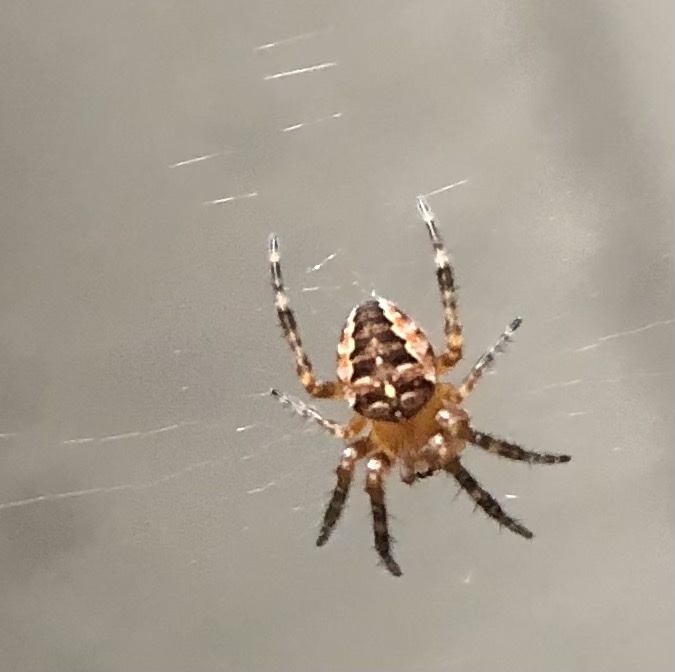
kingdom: Animalia
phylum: Arthropoda
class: Arachnida
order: Araneae
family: Araneidae
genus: Araneus
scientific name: Araneus diadematus
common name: Cross orbweaver
